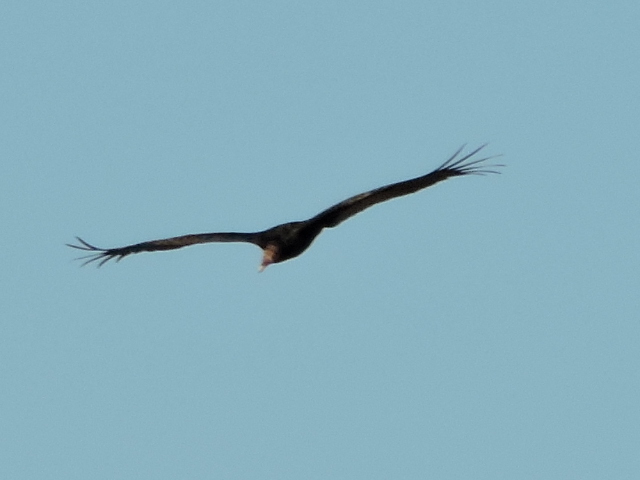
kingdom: Animalia
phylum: Chordata
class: Aves
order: Accipitriformes
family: Cathartidae
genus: Cathartes
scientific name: Cathartes aura
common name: Turkey vulture
